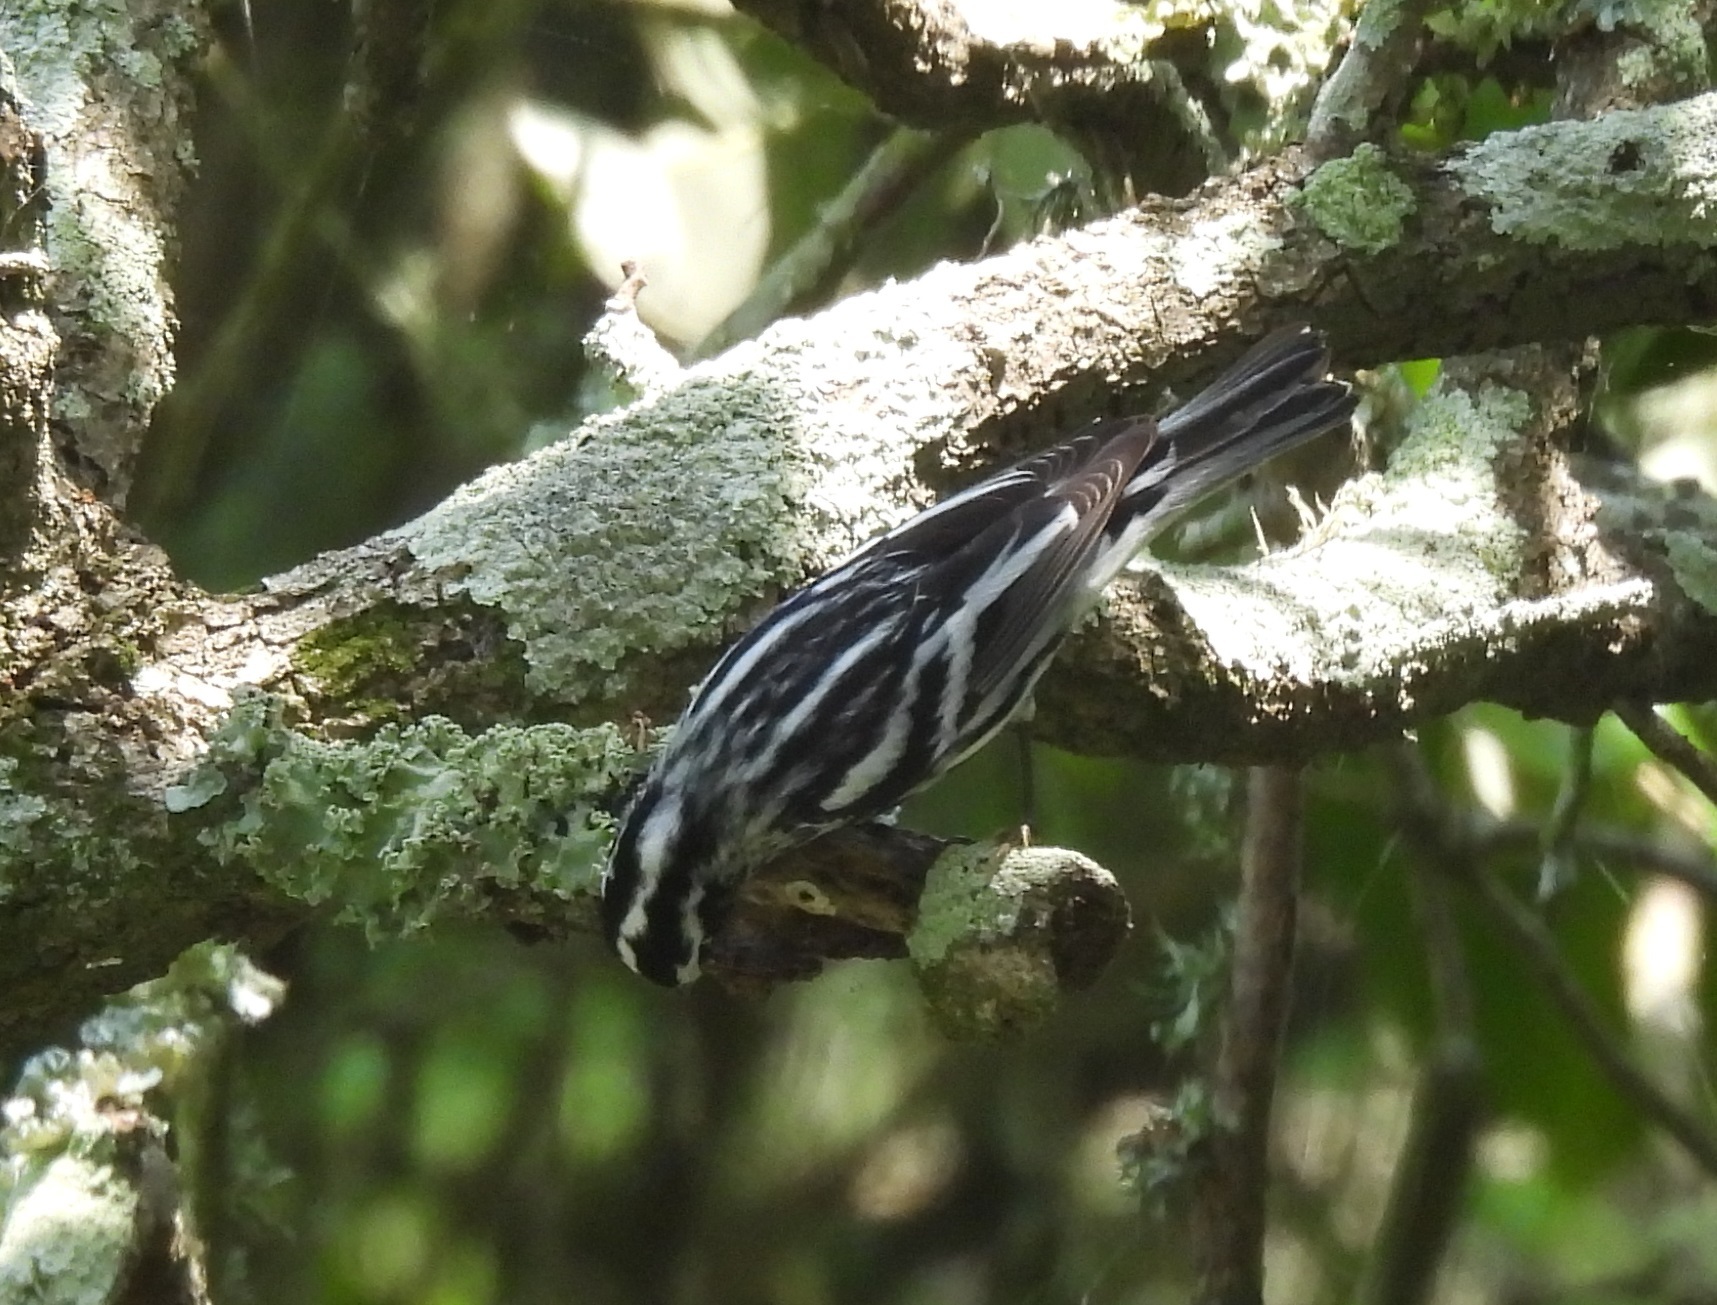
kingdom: Animalia
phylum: Chordata
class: Aves
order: Passeriformes
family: Parulidae
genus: Mniotilta
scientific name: Mniotilta varia
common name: Black-and-white warbler
